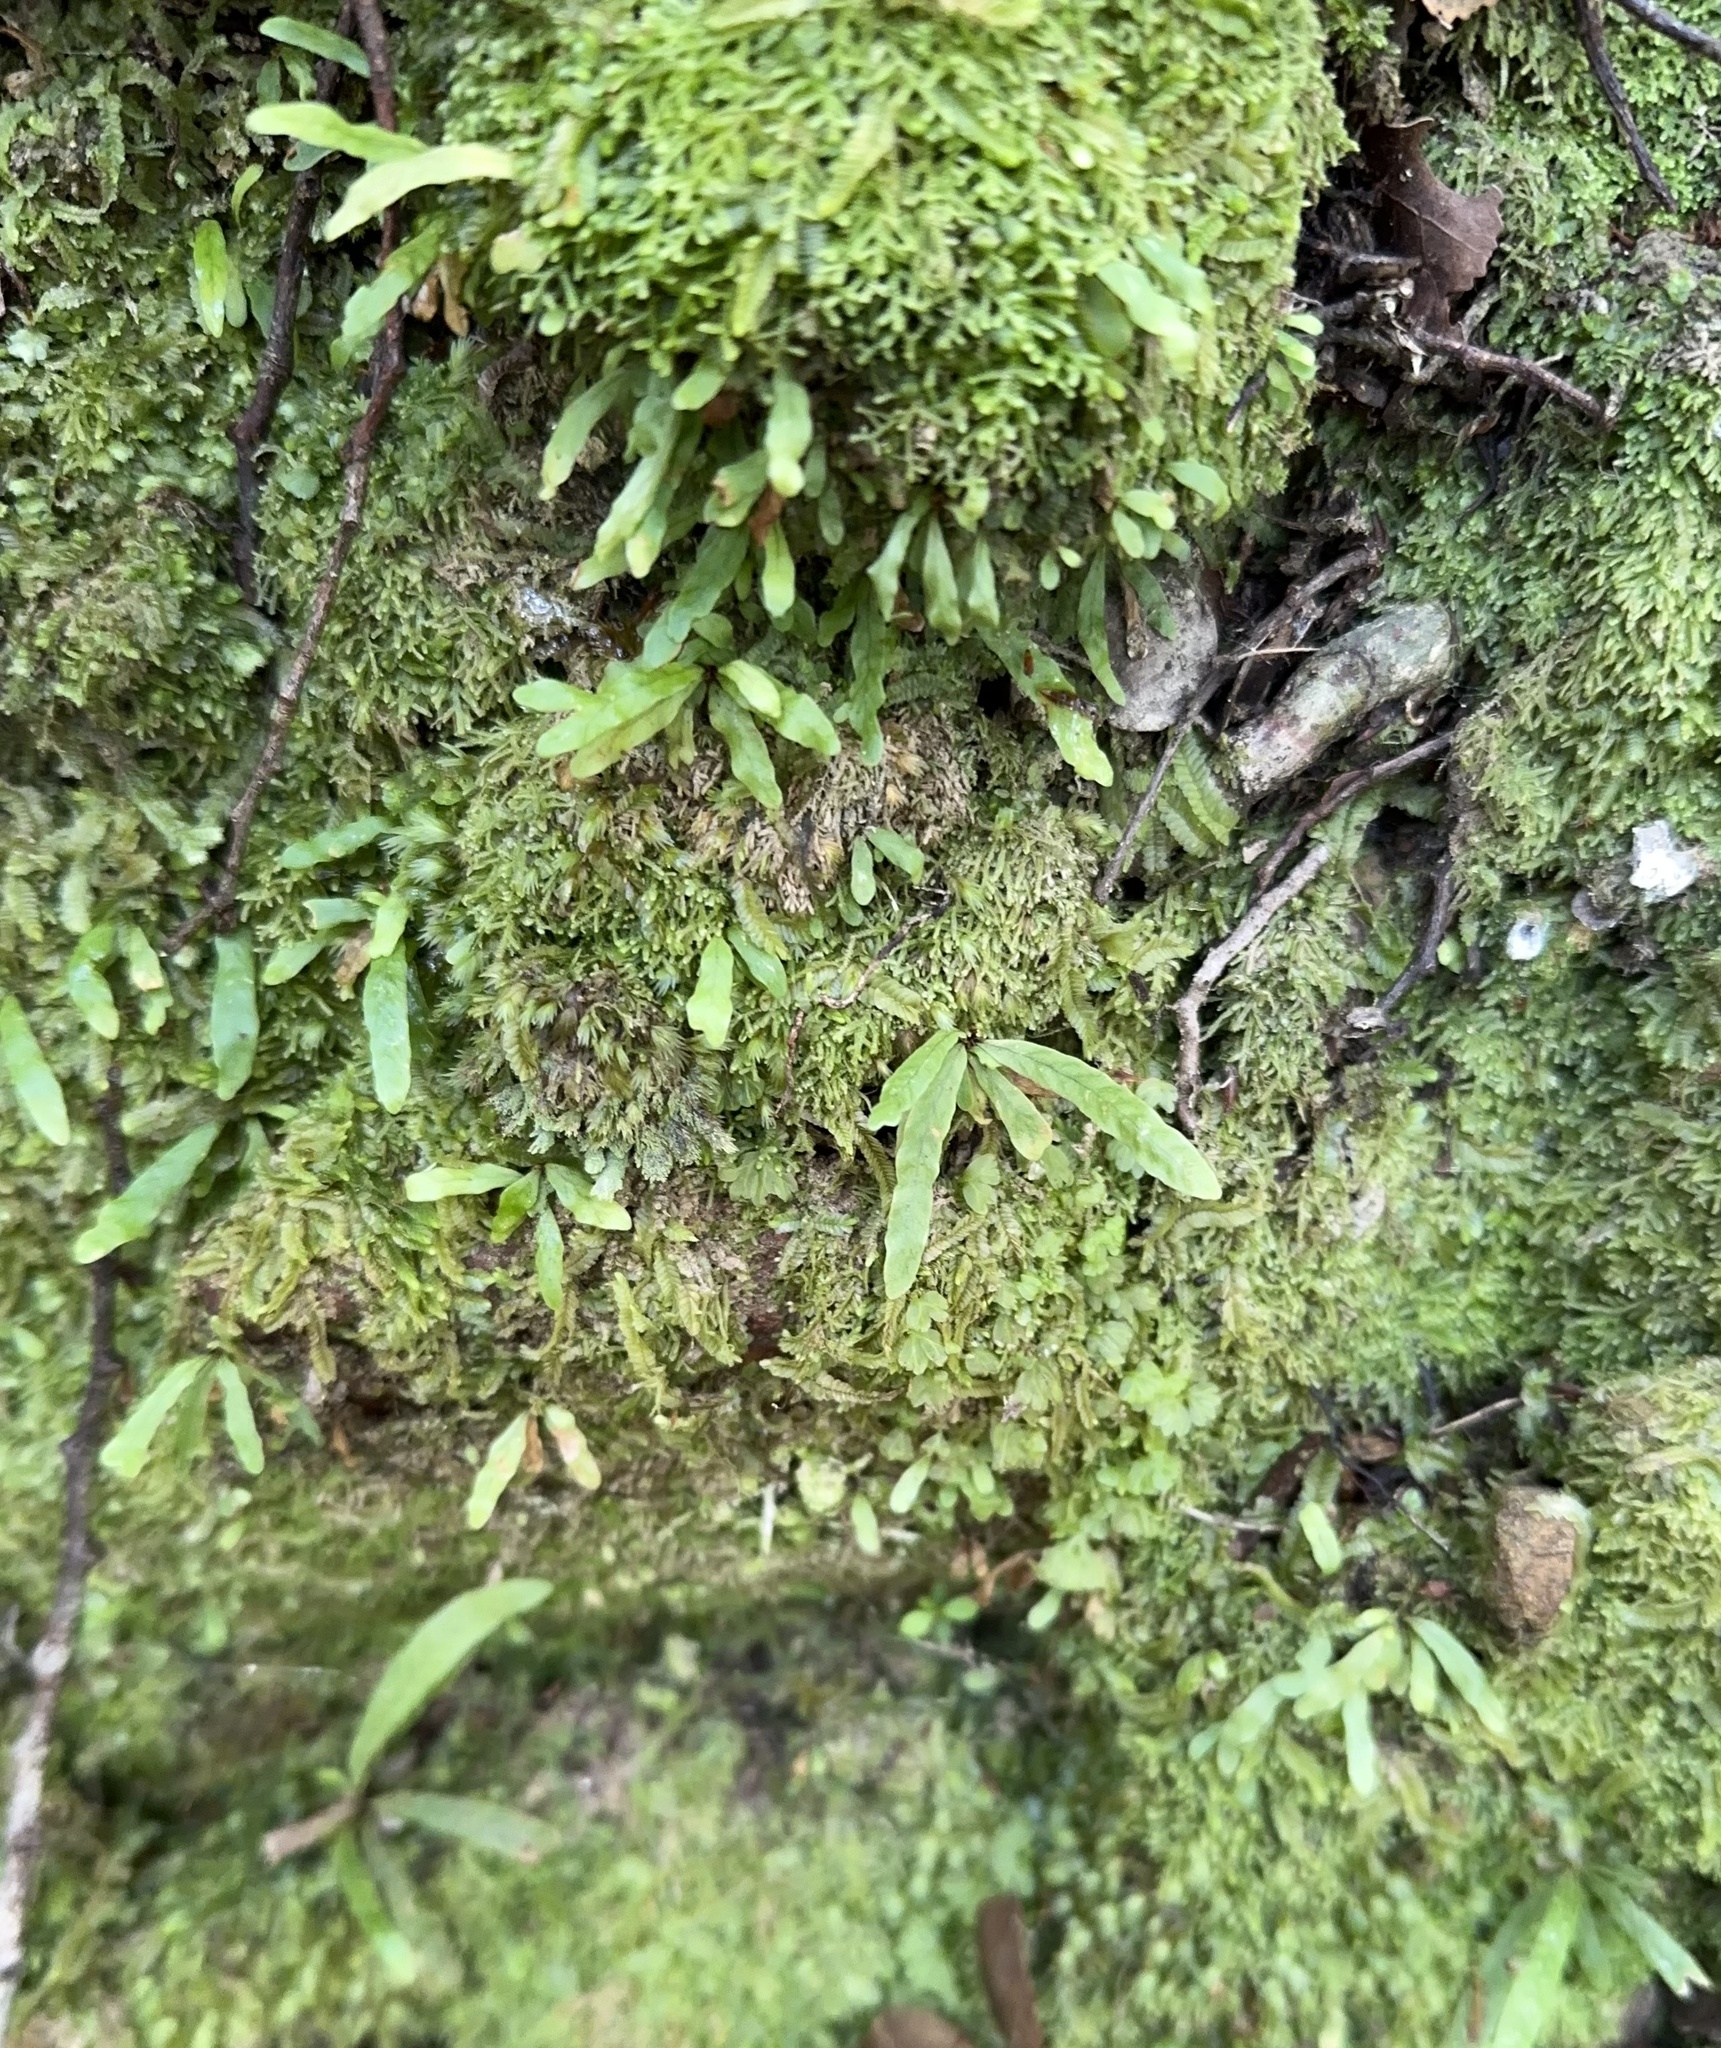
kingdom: Plantae
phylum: Tracheophyta
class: Polypodiopsida
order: Polypodiales
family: Polypodiaceae
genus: Notogrammitis
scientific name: Notogrammitis billardierei
